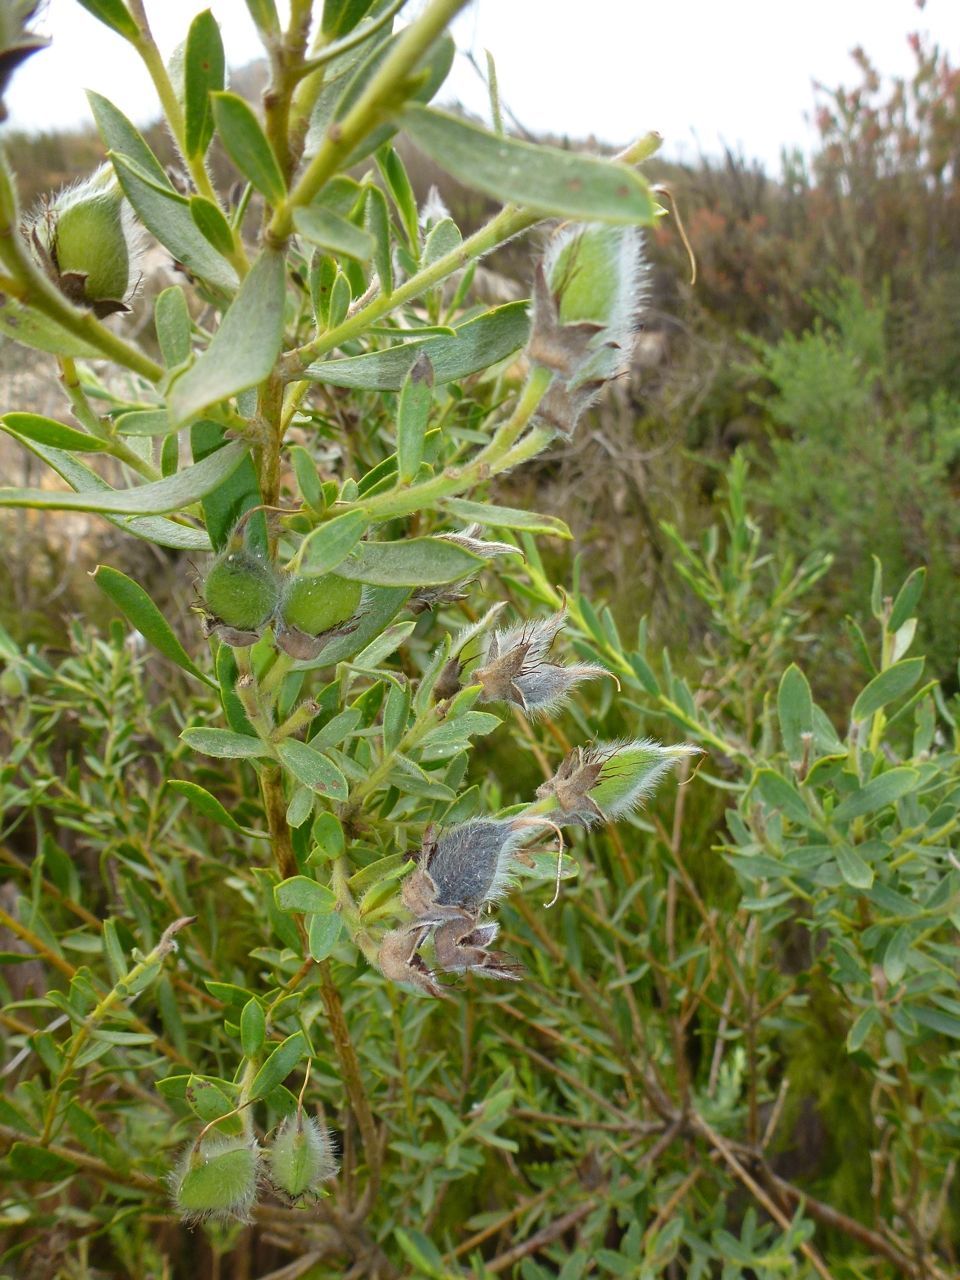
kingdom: Plantae
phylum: Tracheophyta
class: Magnoliopsida
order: Fabales
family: Fabaceae
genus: Liparia
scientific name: Liparia racemosa
